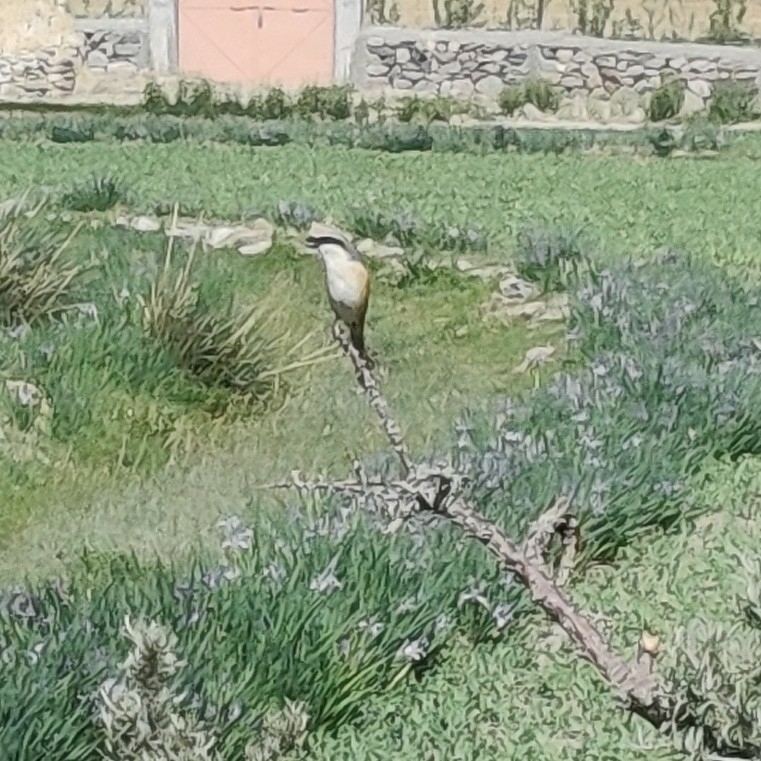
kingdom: Animalia
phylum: Chordata
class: Aves
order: Passeriformes
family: Laniidae
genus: Lanius
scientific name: Lanius schach
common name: Long-tailed shrike
